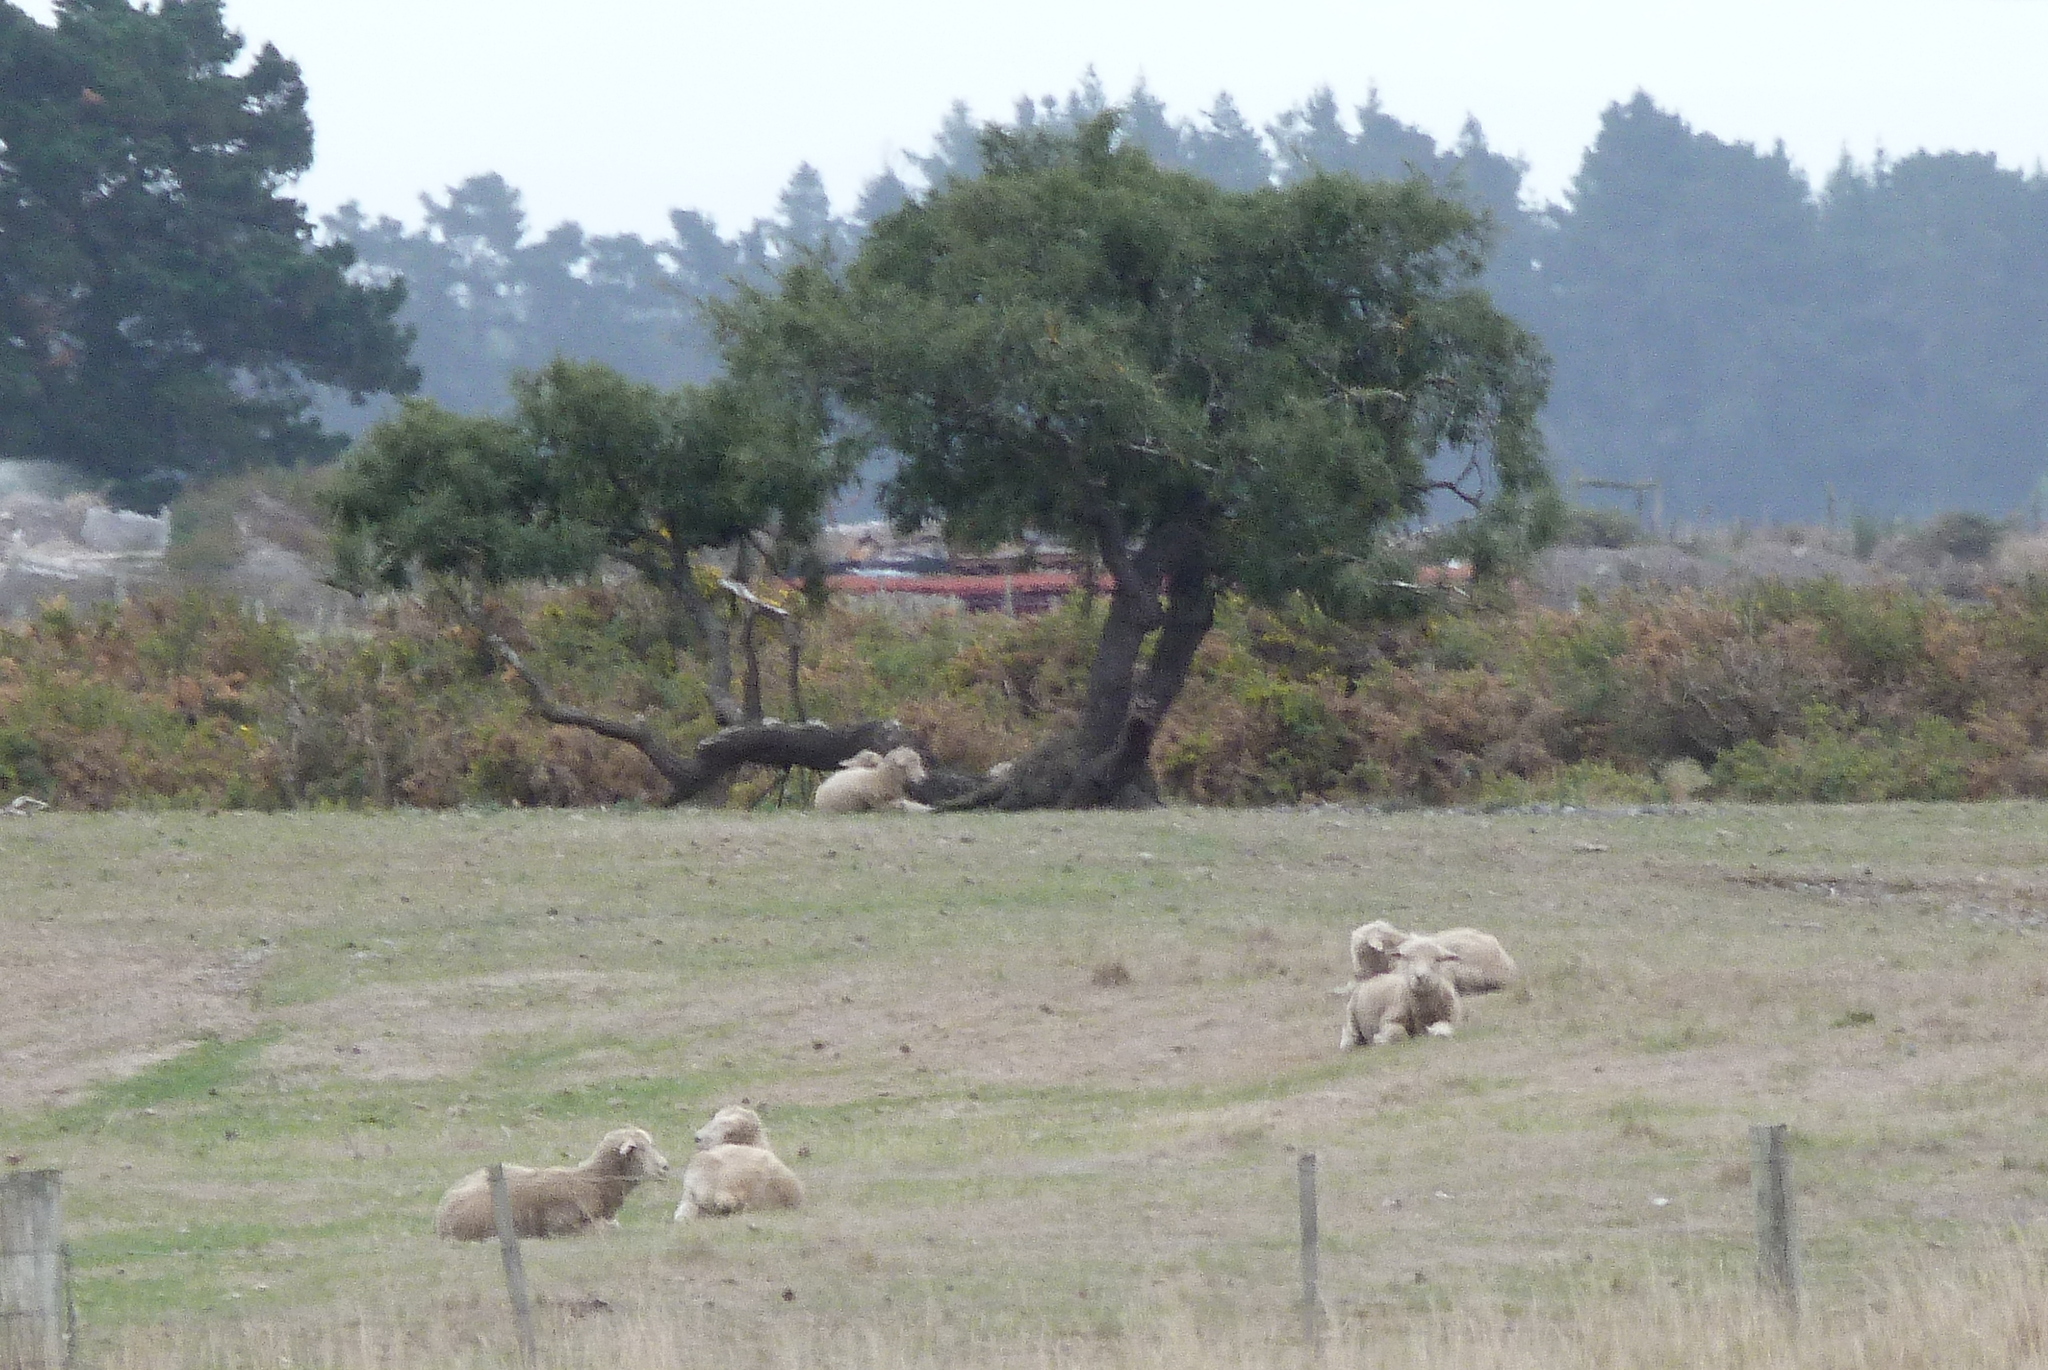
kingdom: Plantae
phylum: Tracheophyta
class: Magnoliopsida
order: Fabales
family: Fabaceae
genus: Sophora
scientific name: Sophora microphylla
